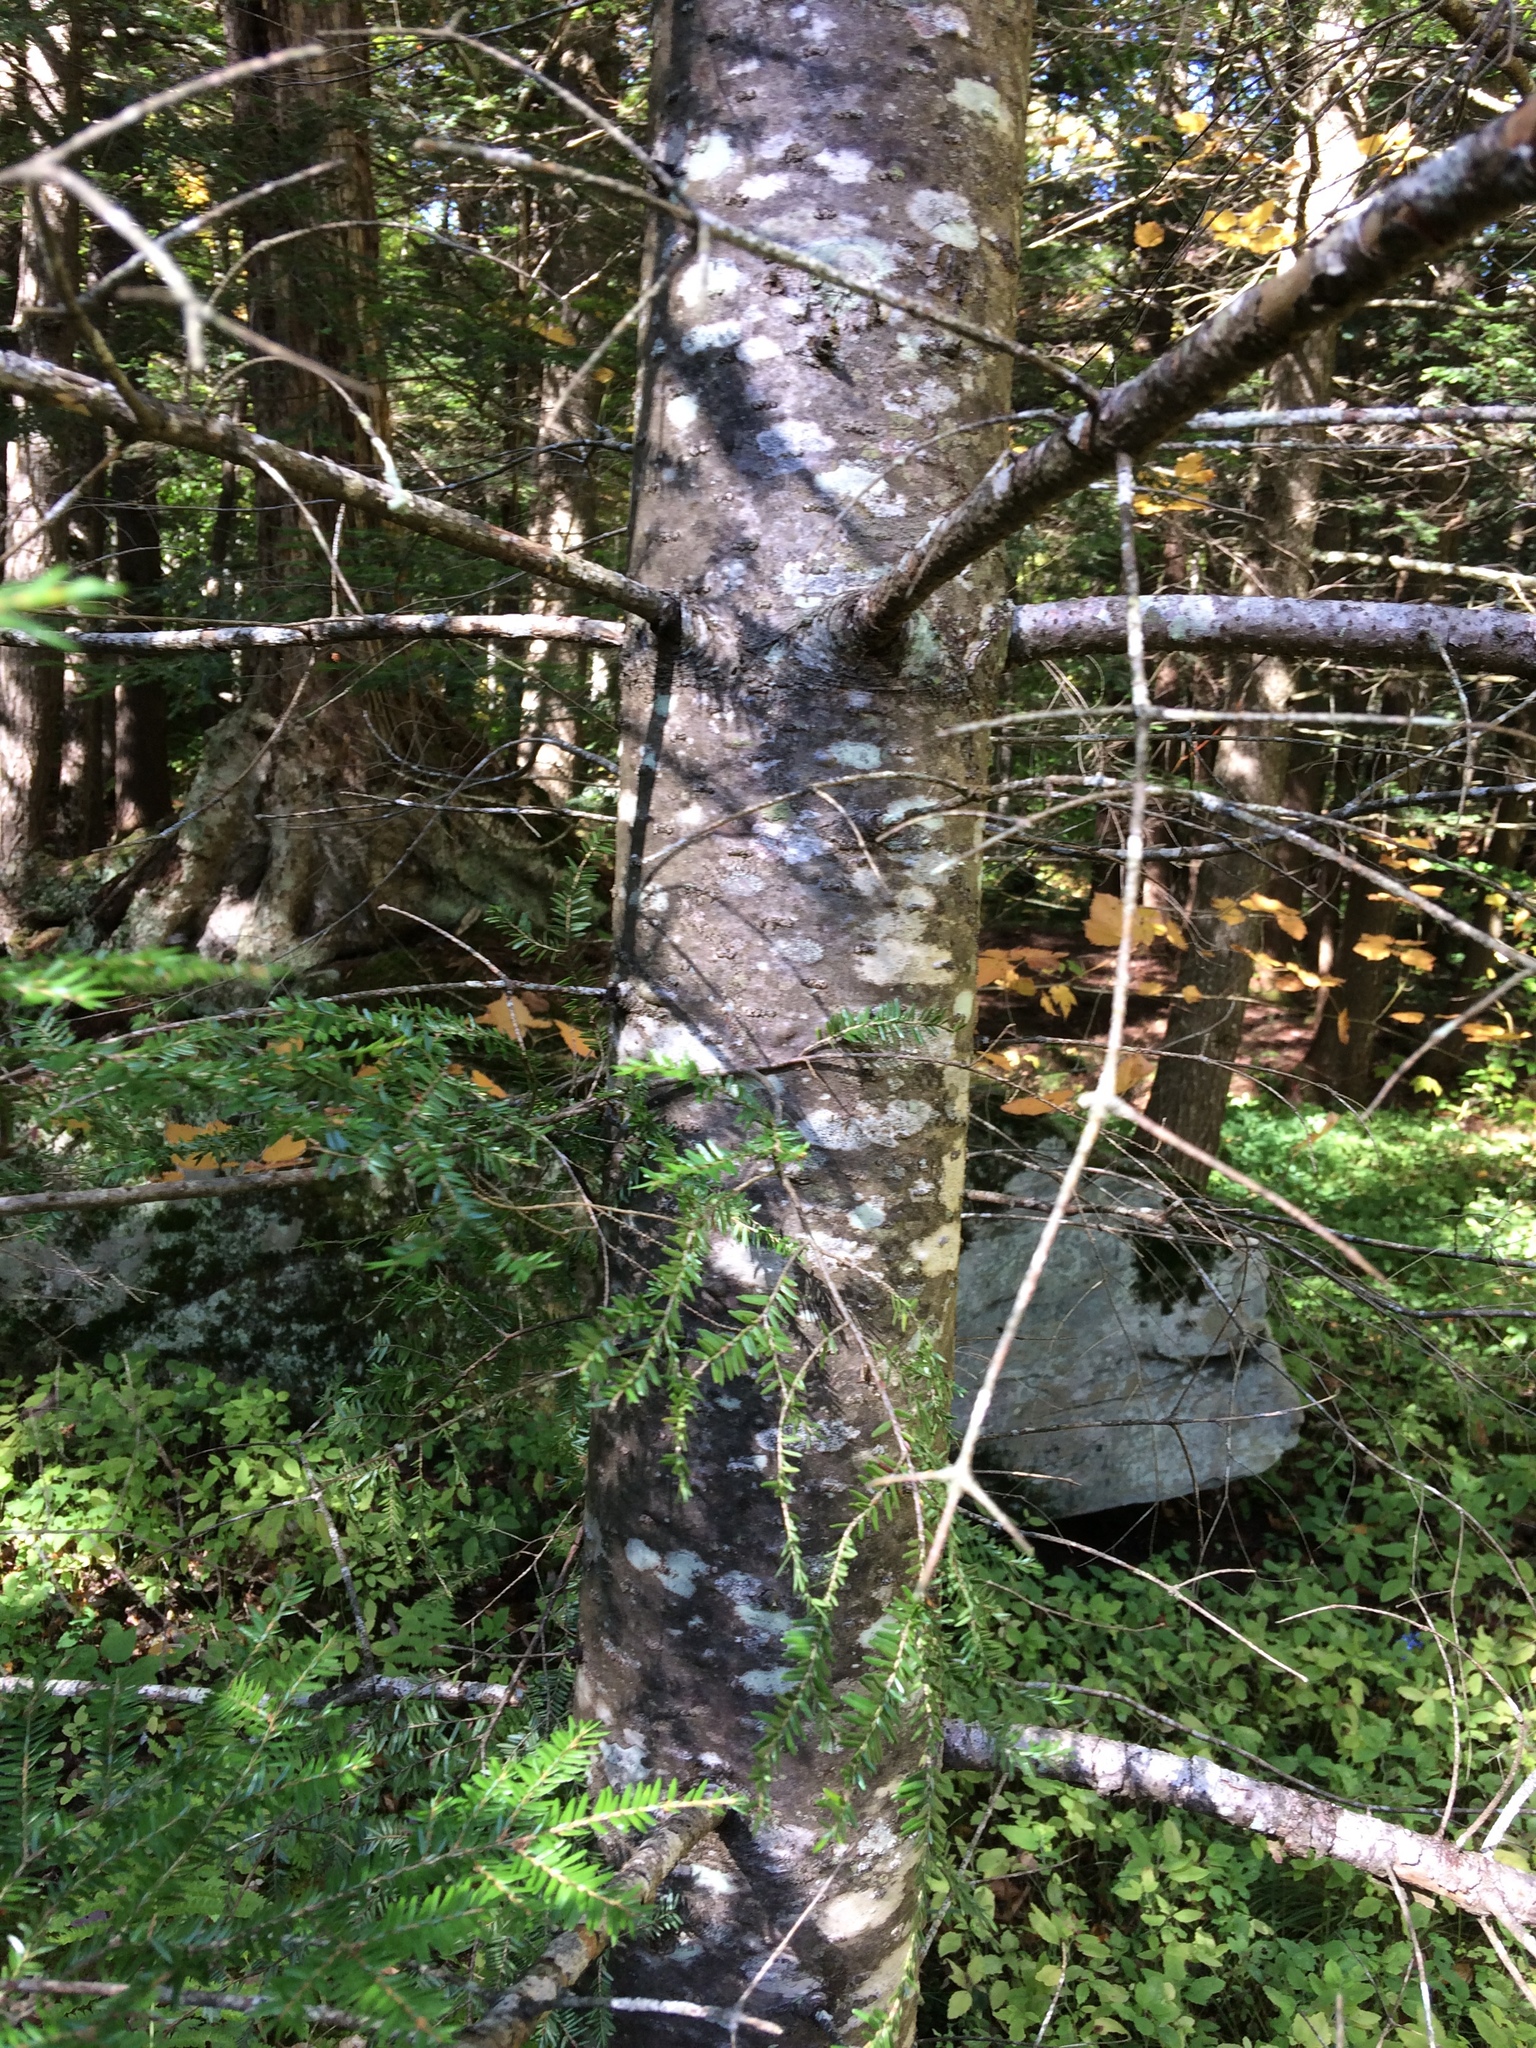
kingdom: Plantae
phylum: Tracheophyta
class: Pinopsida
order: Pinales
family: Pinaceae
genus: Abies
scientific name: Abies balsamea
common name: Balsam fir
